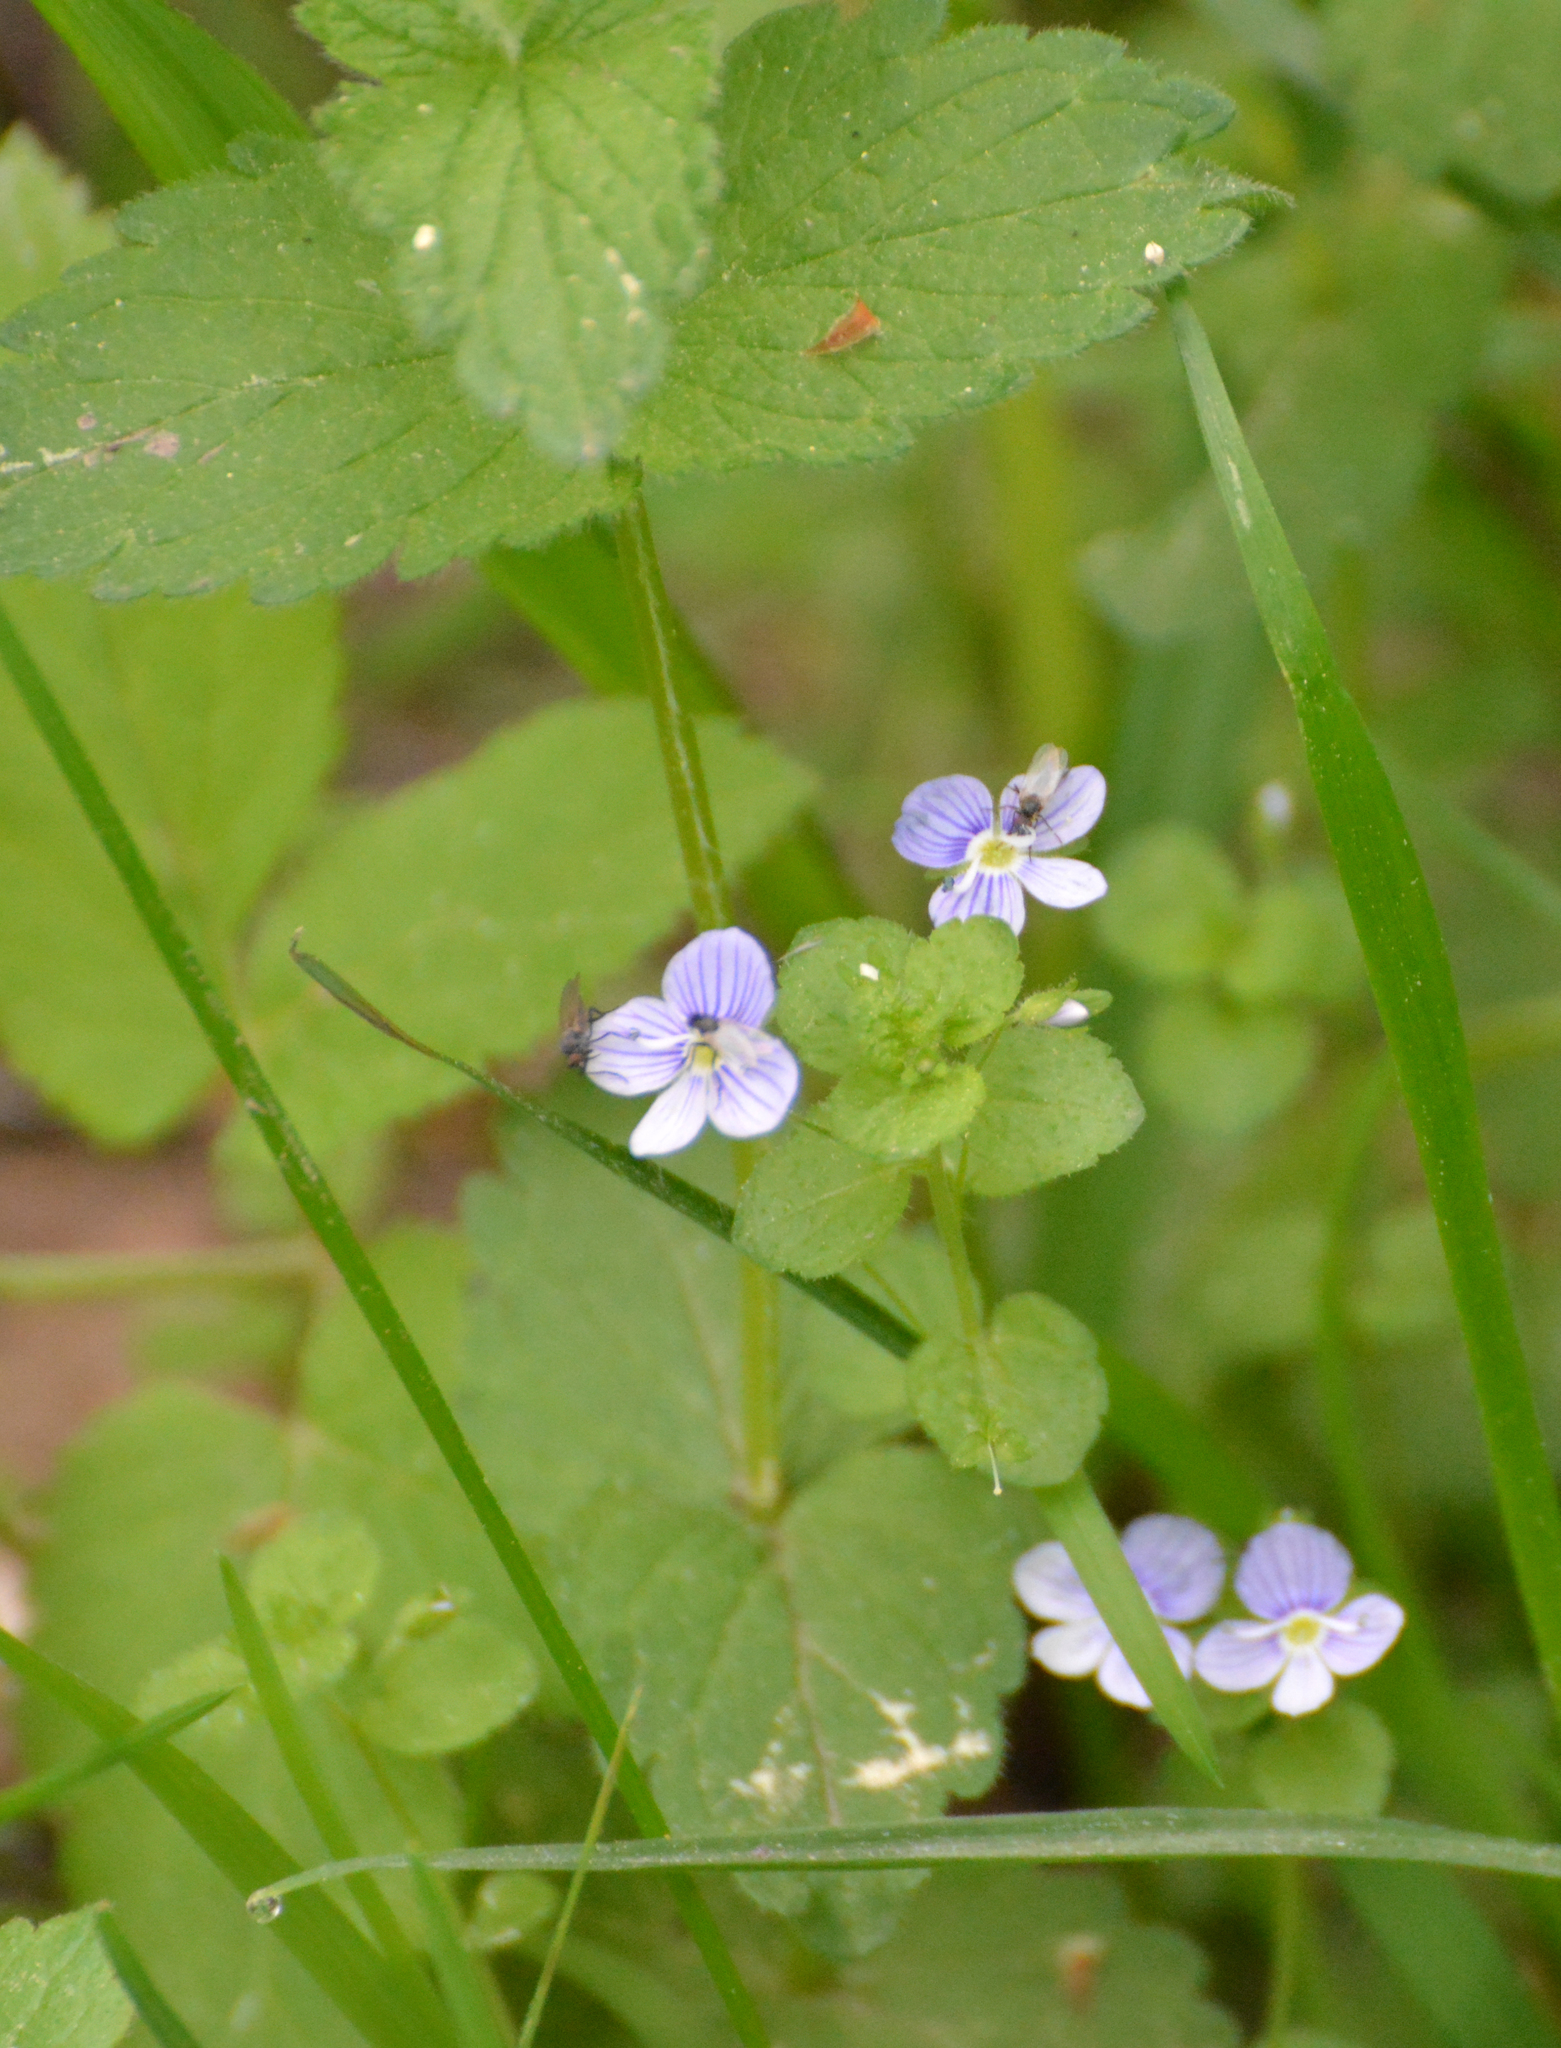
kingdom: Plantae
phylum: Tracheophyta
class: Magnoliopsida
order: Lamiales
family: Plantaginaceae
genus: Veronica
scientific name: Veronica filiformis
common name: Slender speedwell
